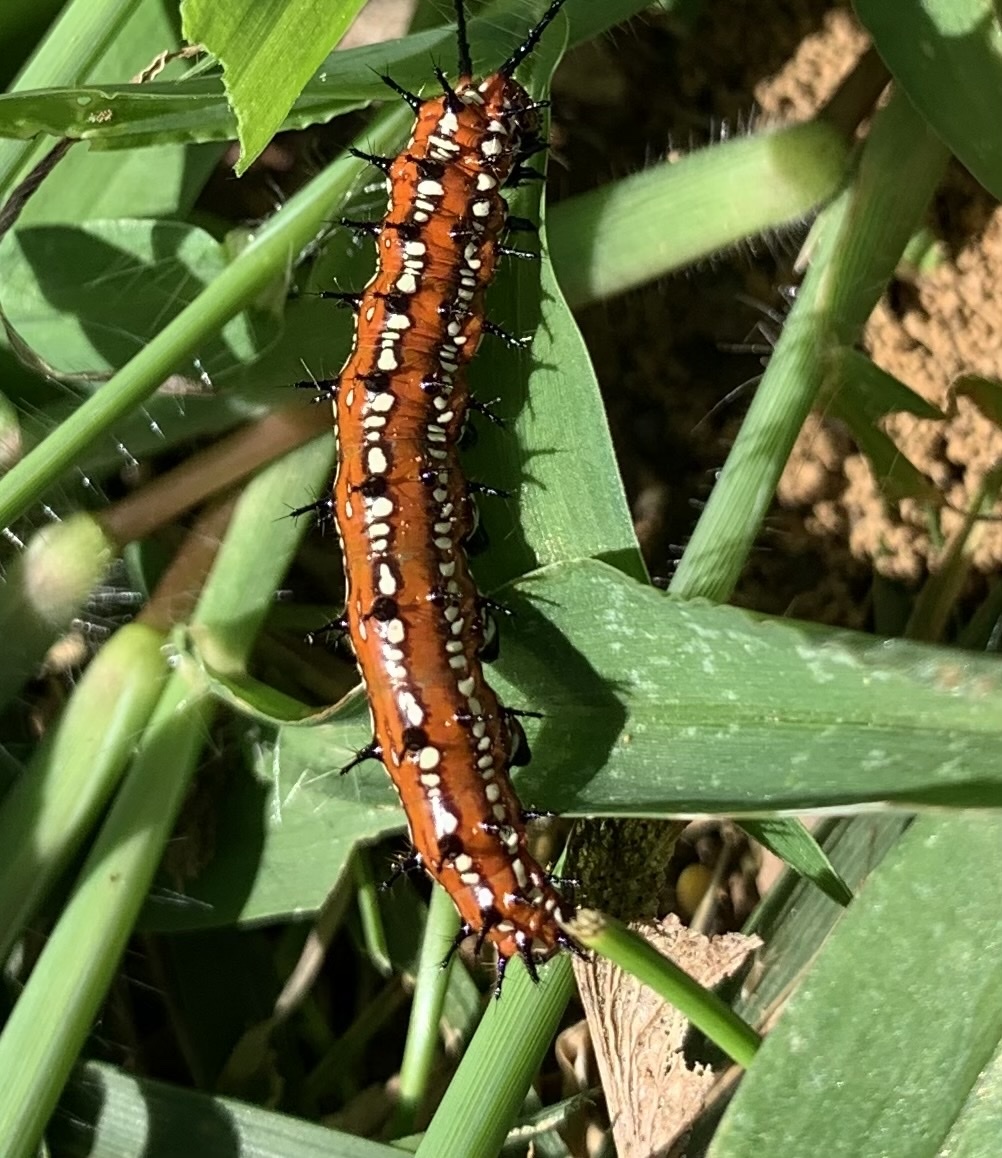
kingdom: Animalia
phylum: Arthropoda
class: Insecta
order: Lepidoptera
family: Nymphalidae
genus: Euptoieta
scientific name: Euptoieta claudia
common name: Variegated fritillary
